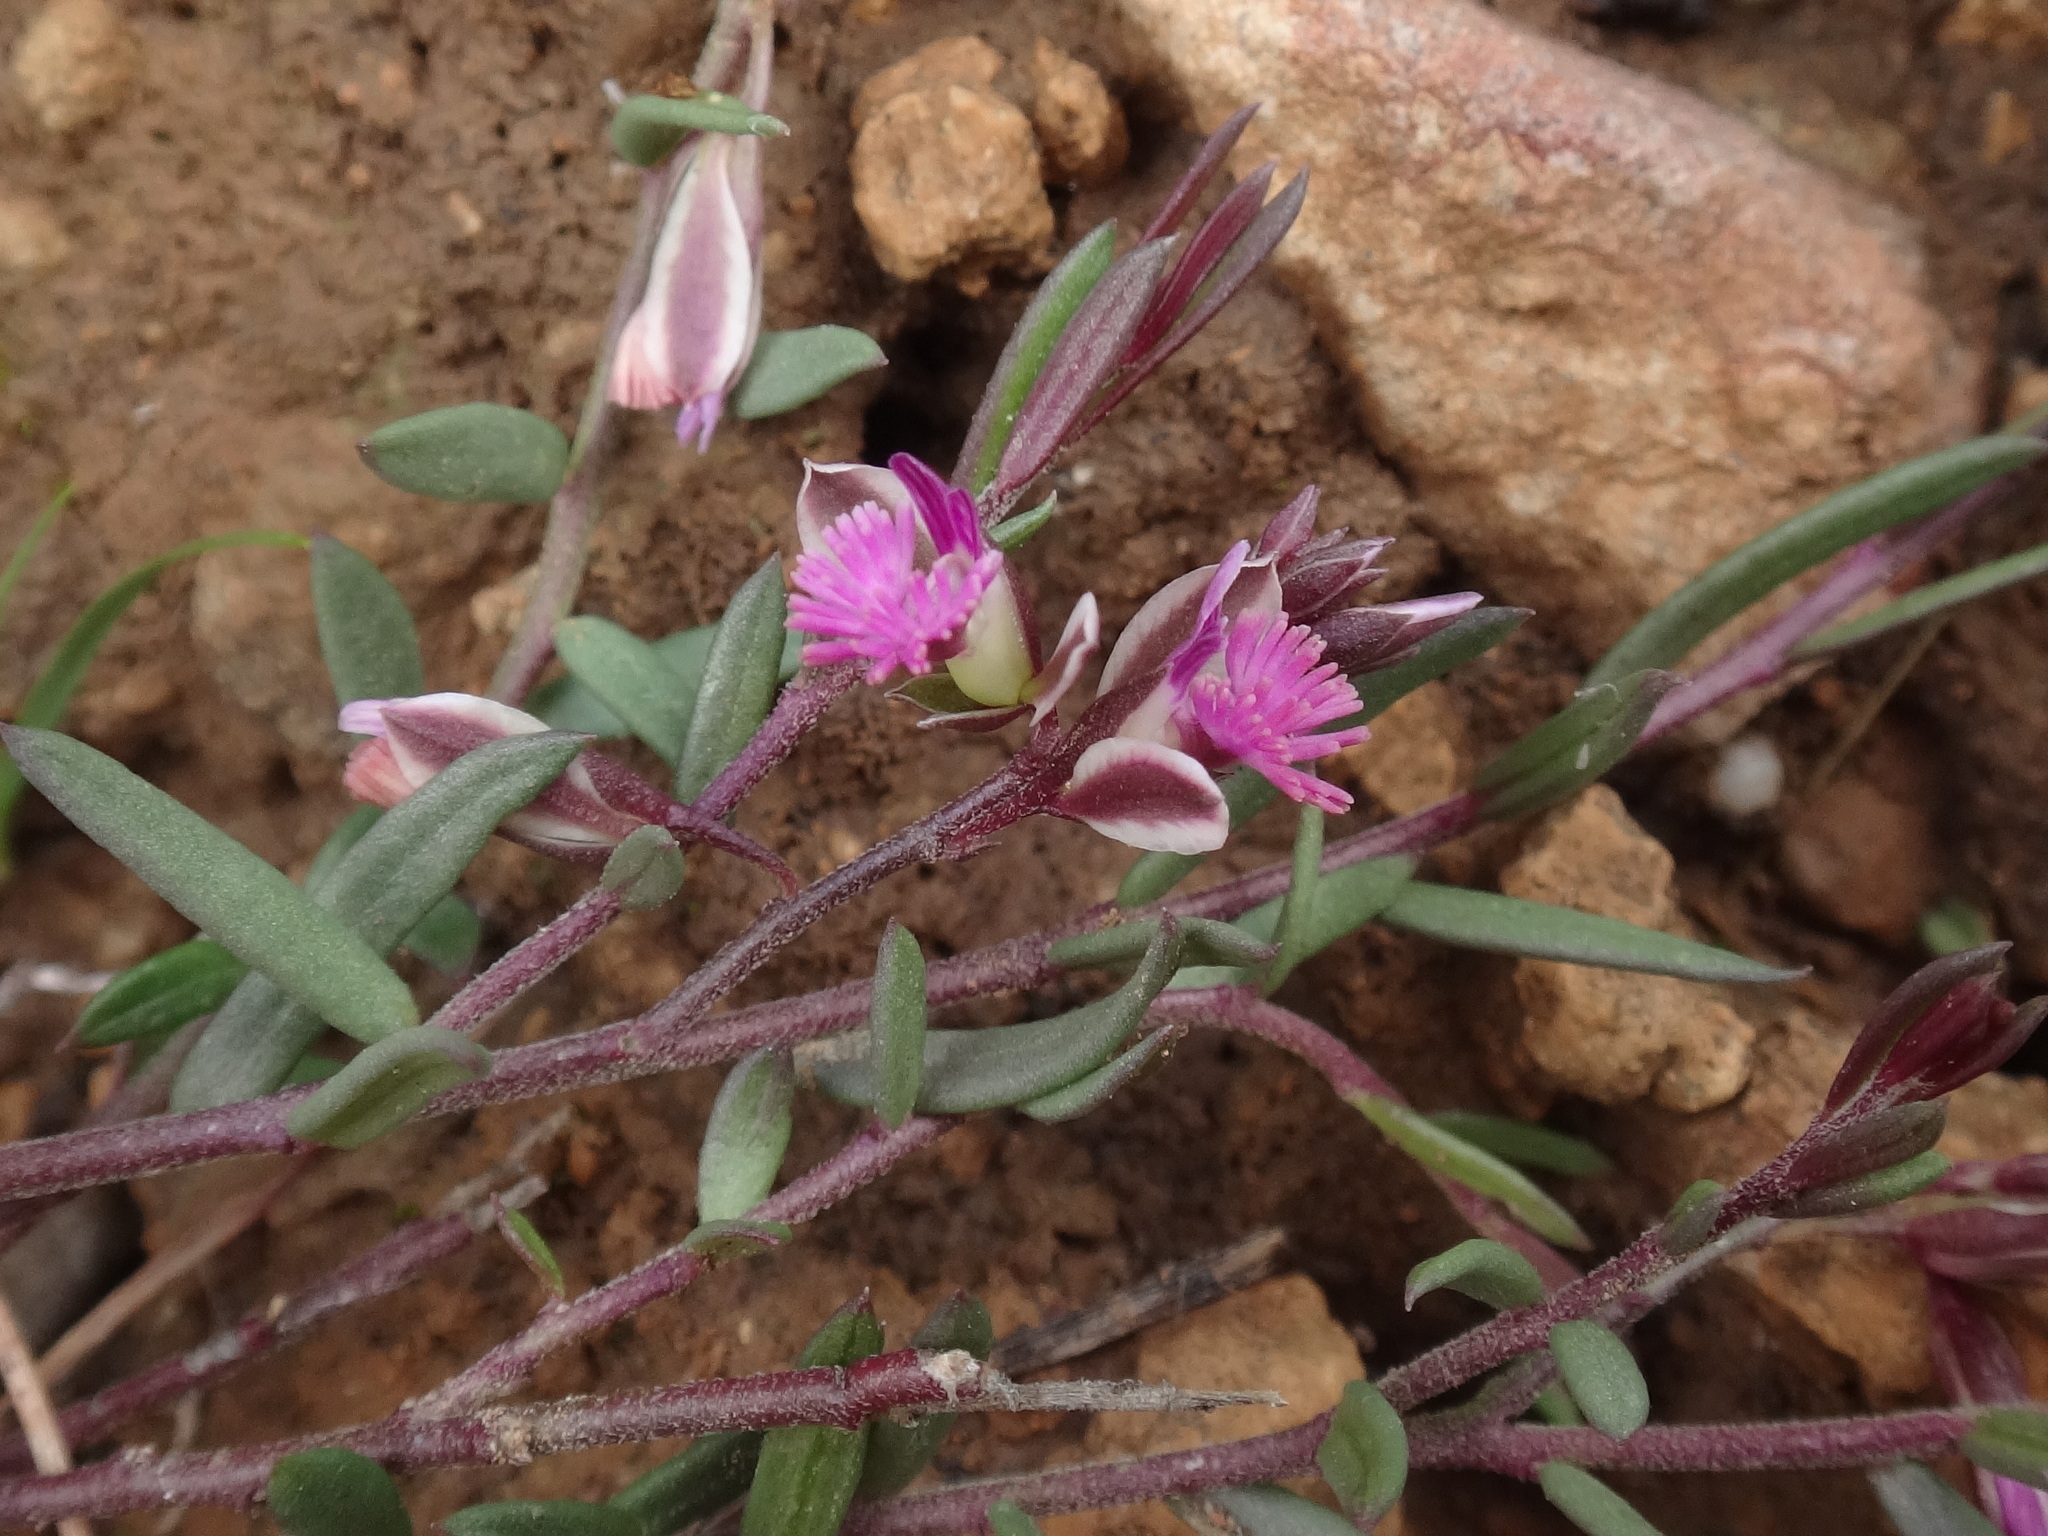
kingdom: Plantae
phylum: Tracheophyta
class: Magnoliopsida
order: Fabales
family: Polygalaceae
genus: Polygala
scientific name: Polygala rupestris
